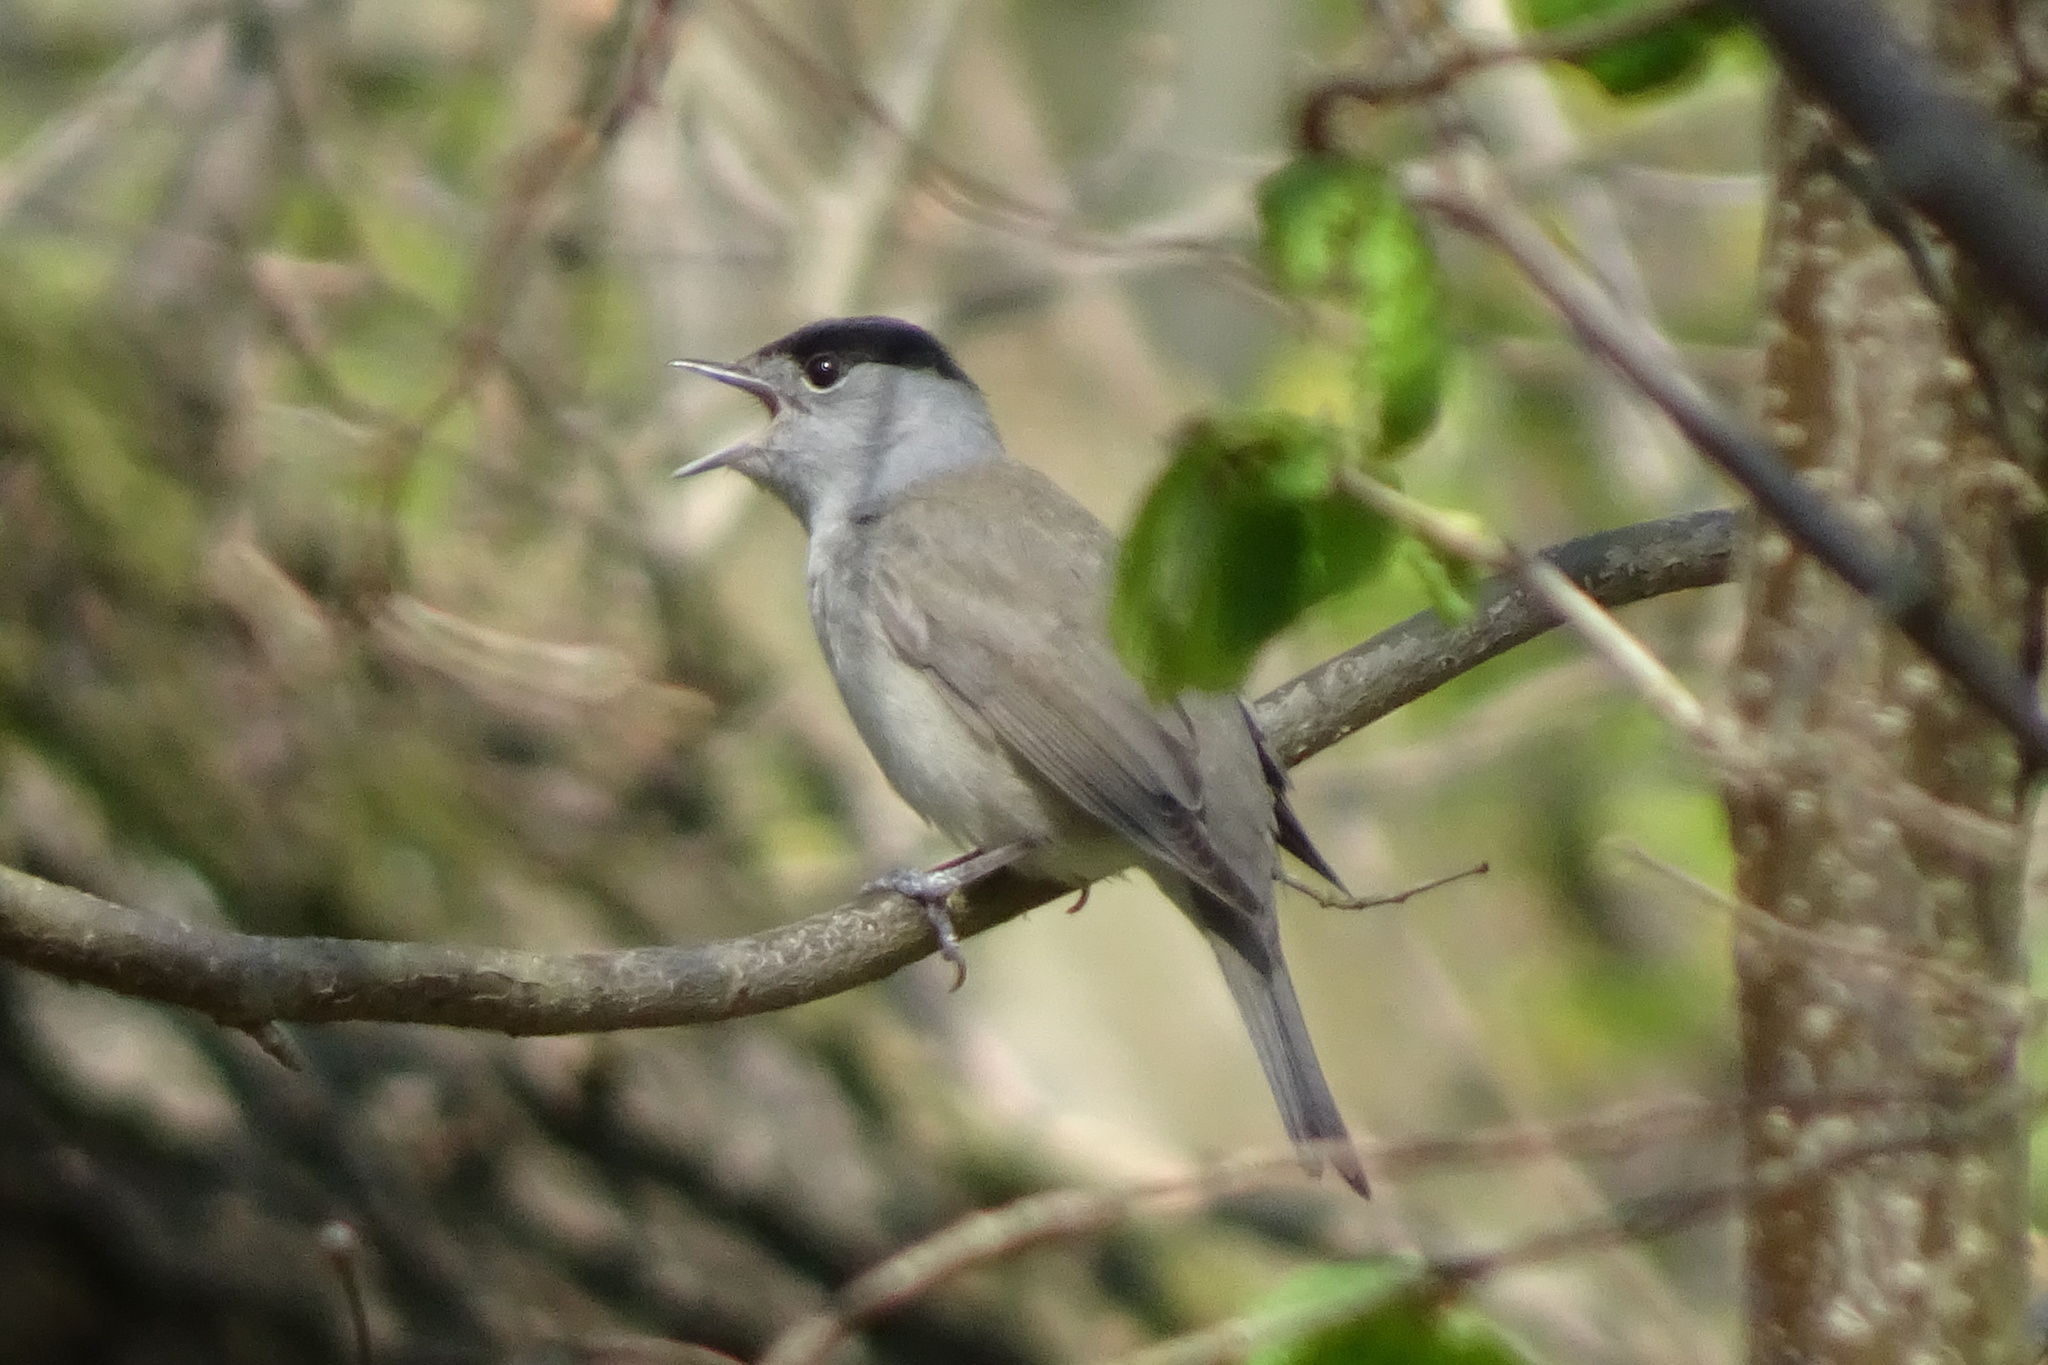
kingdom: Animalia
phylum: Chordata
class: Aves
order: Passeriformes
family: Sylviidae
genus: Sylvia
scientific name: Sylvia atricapilla
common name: Eurasian blackcap
